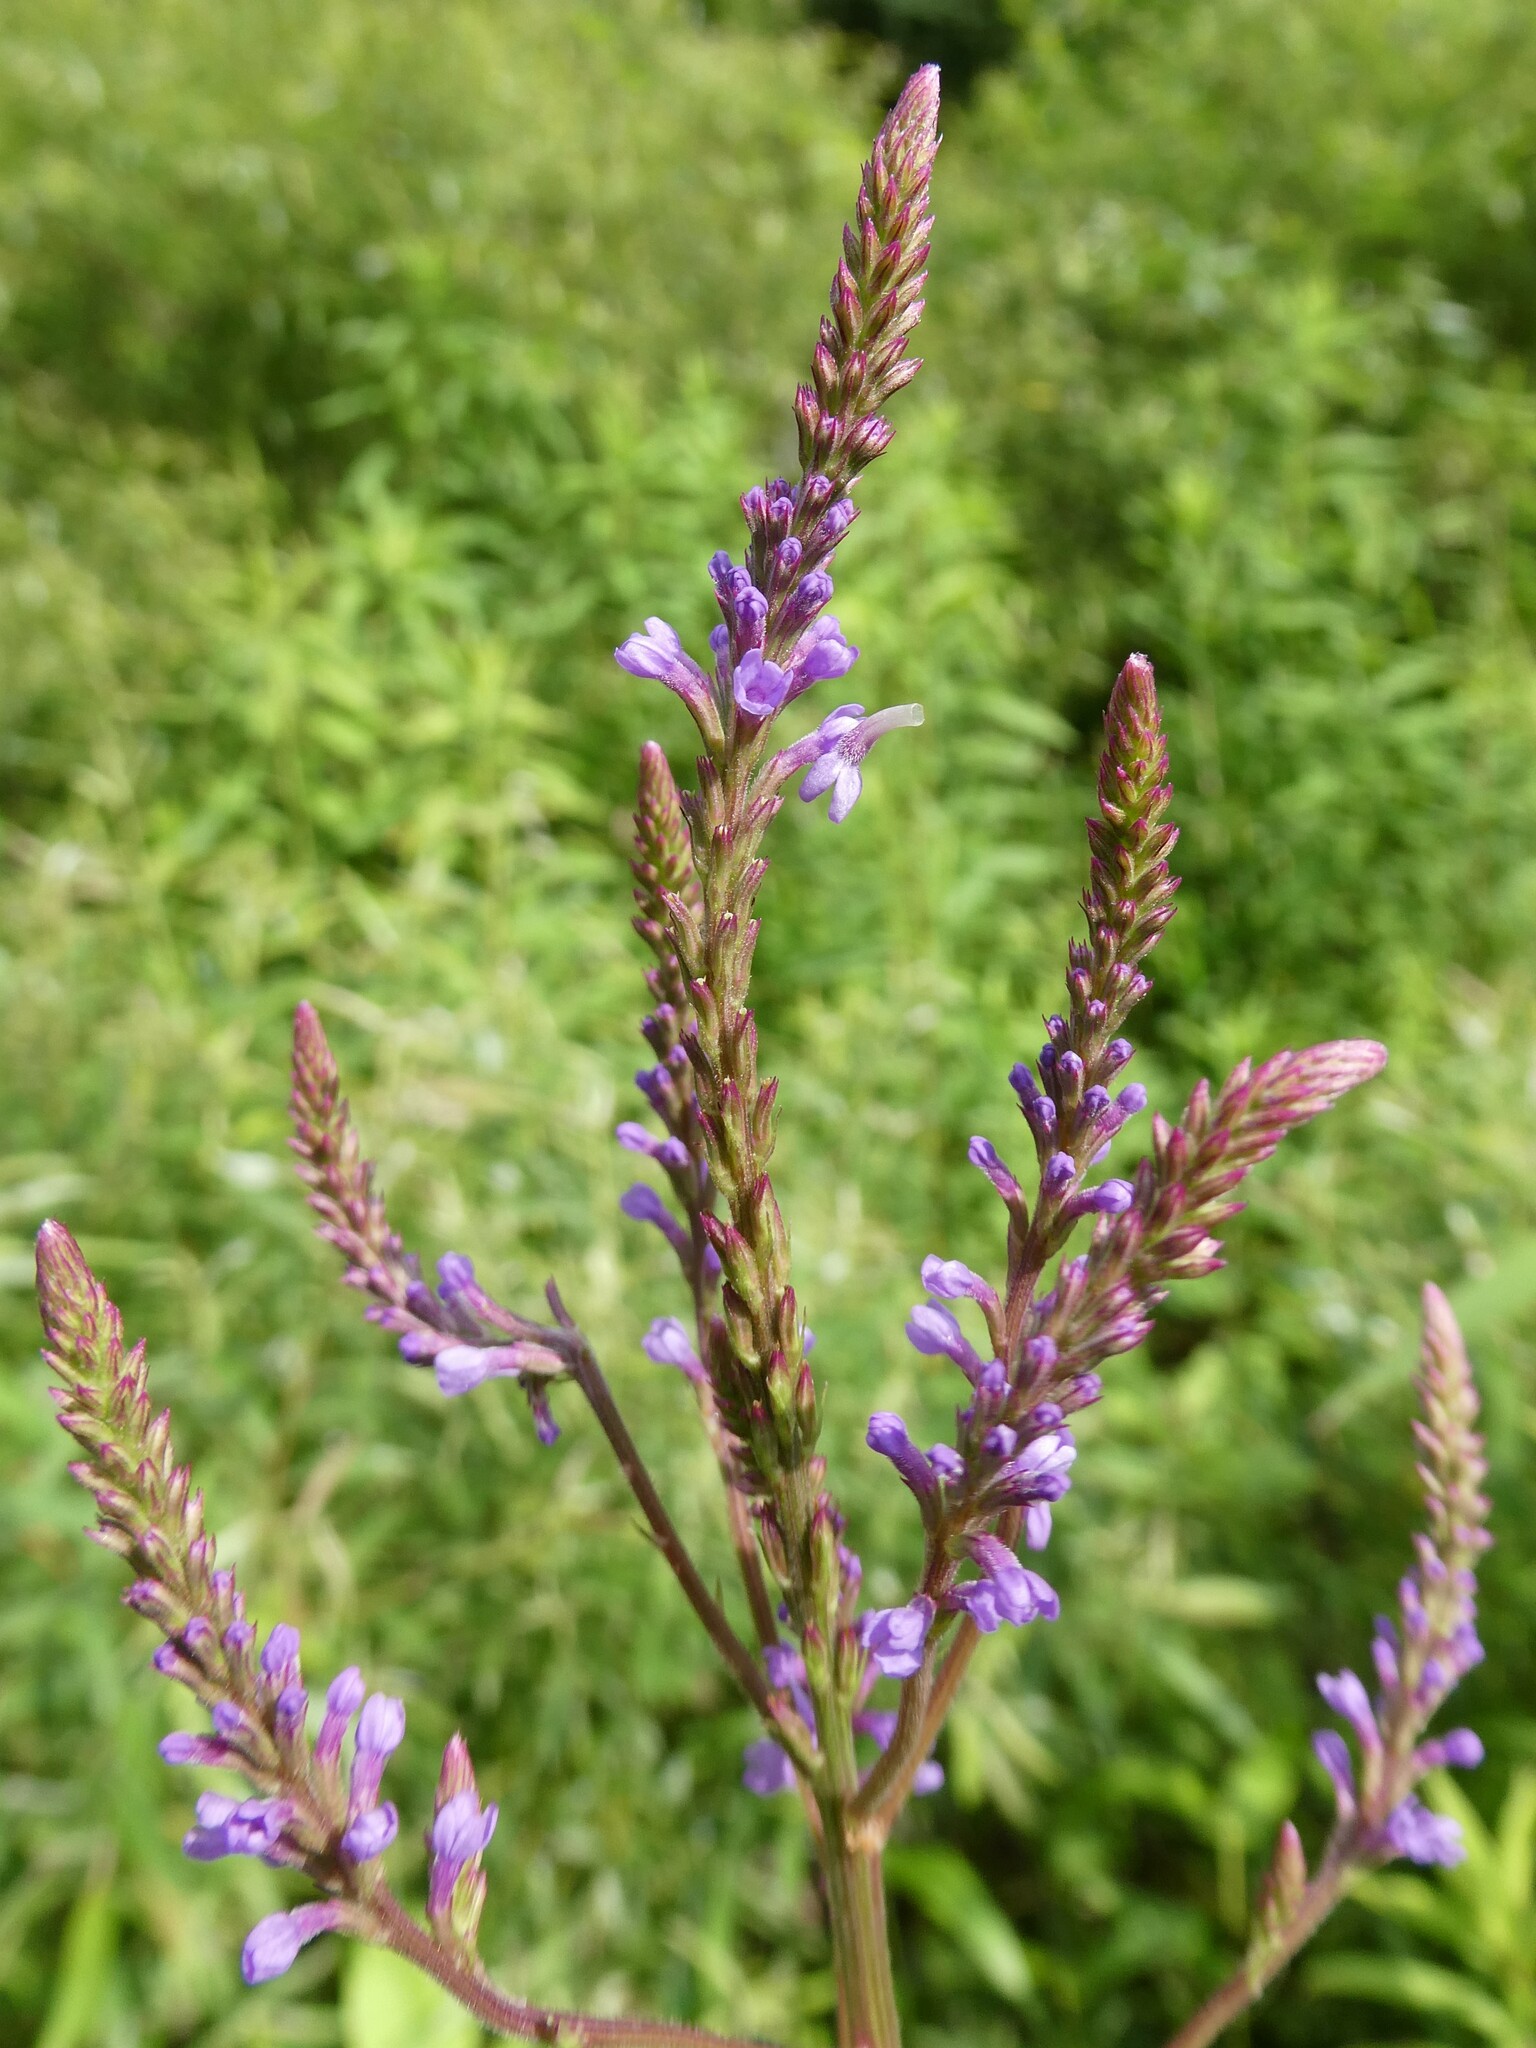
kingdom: Plantae
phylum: Tracheophyta
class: Magnoliopsida
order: Lamiales
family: Verbenaceae
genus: Verbena
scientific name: Verbena hastata
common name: American blue vervain
